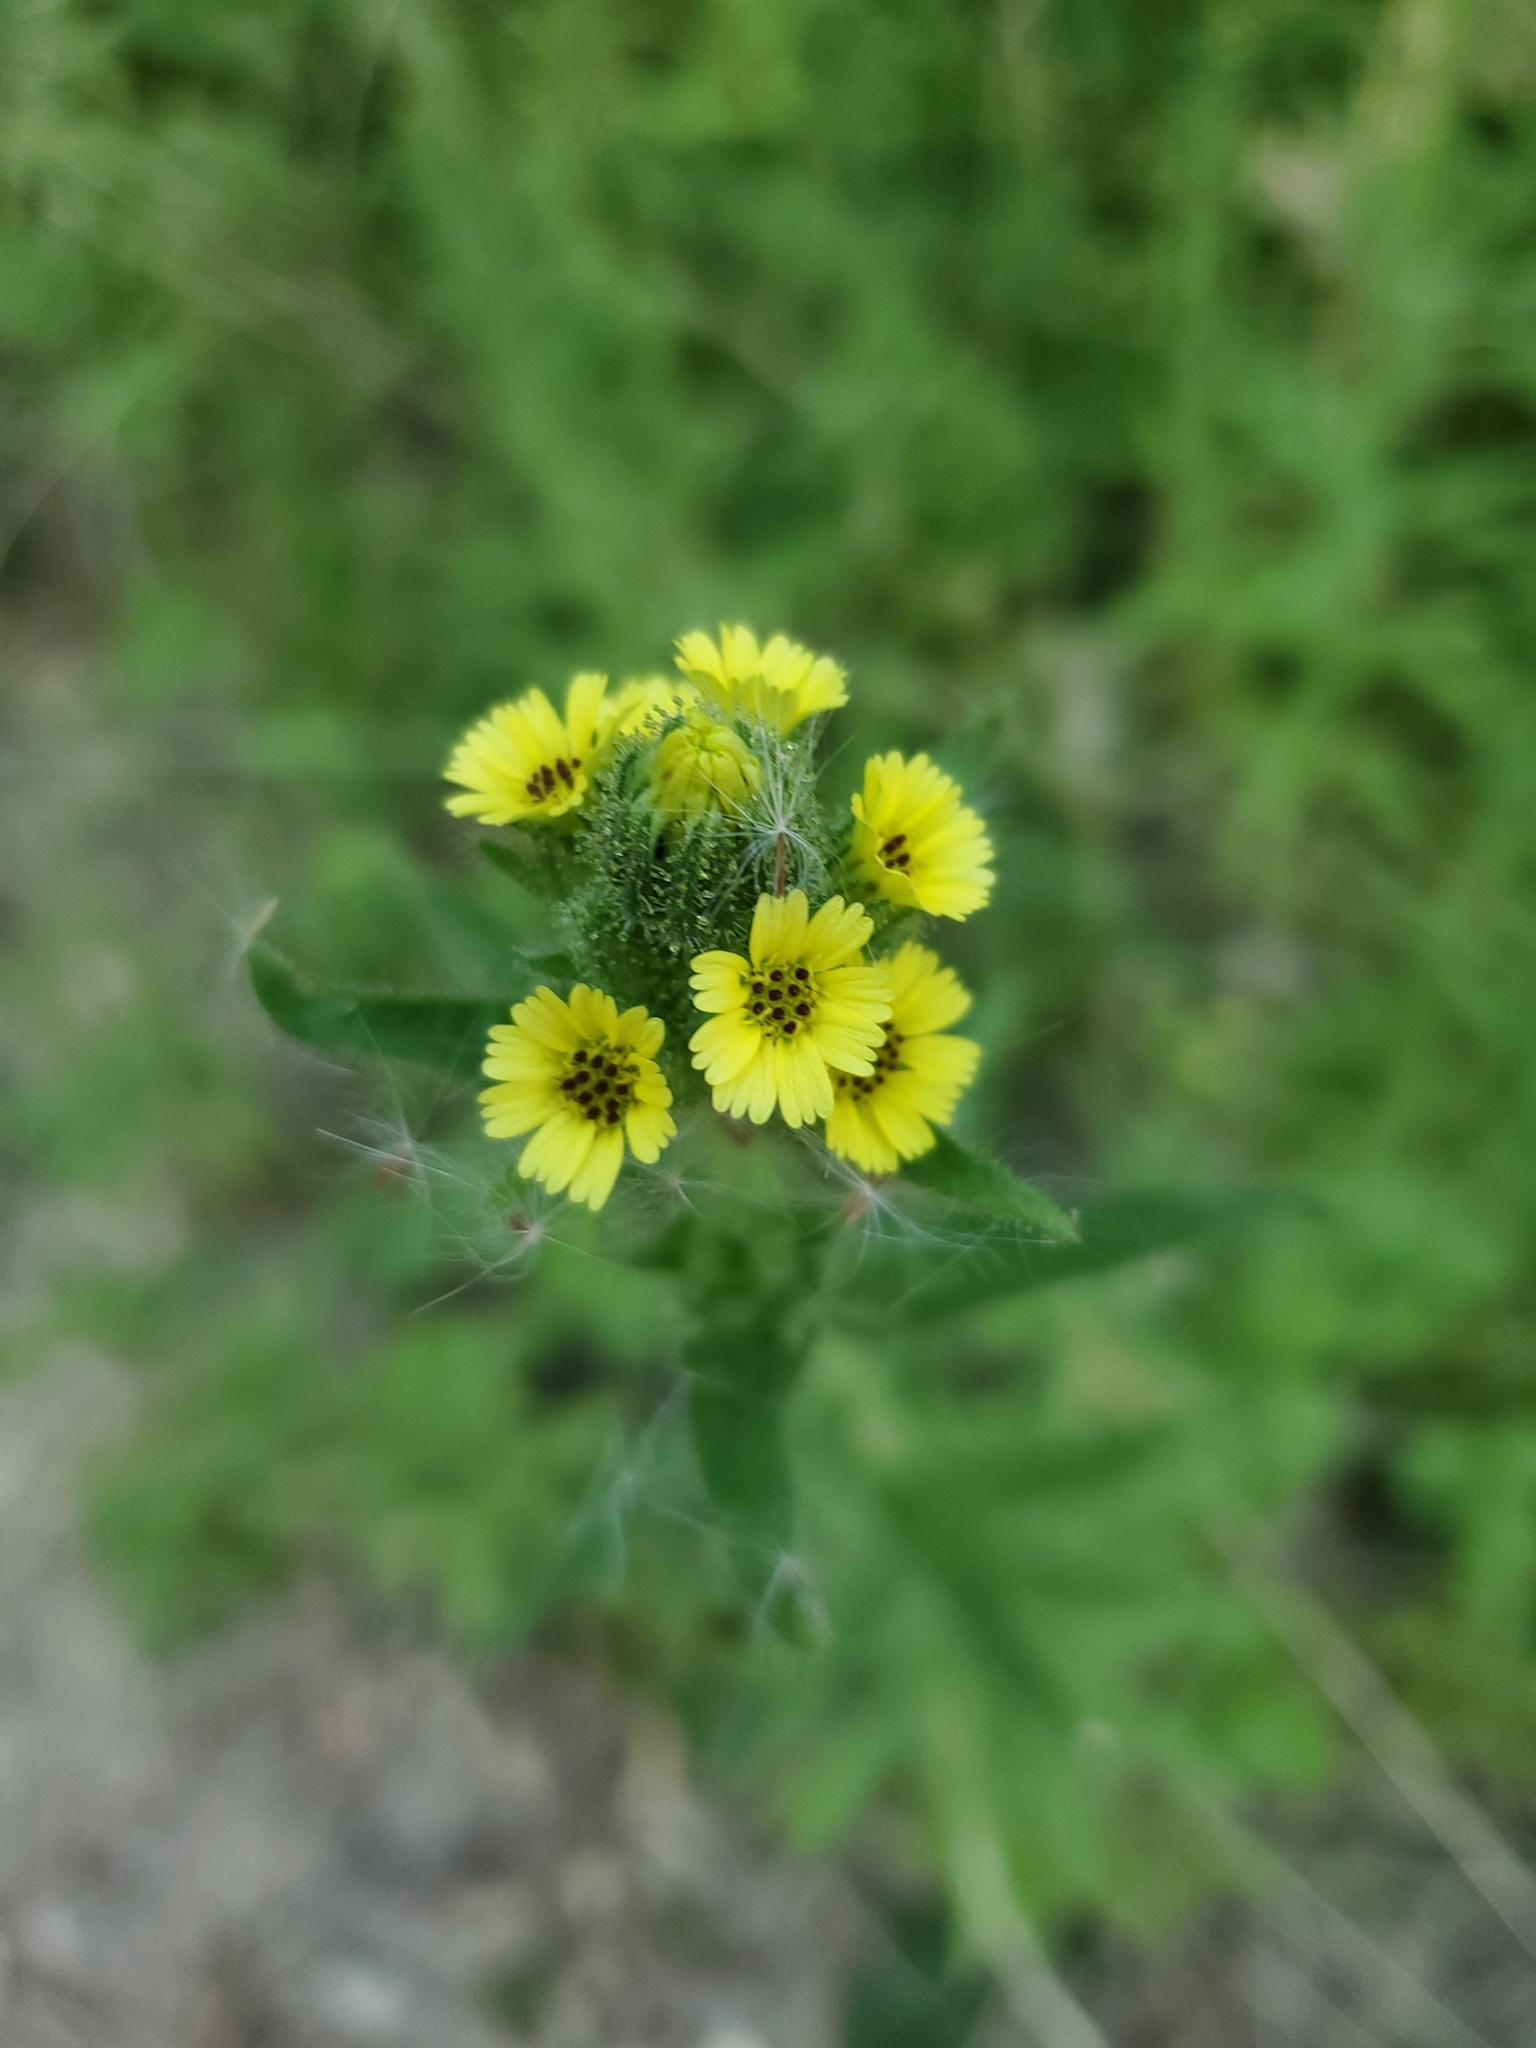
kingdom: Plantae
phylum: Tracheophyta
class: Magnoliopsida
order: Asterales
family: Asteraceae
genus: Madia
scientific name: Madia sativa
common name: Coast tarweed
